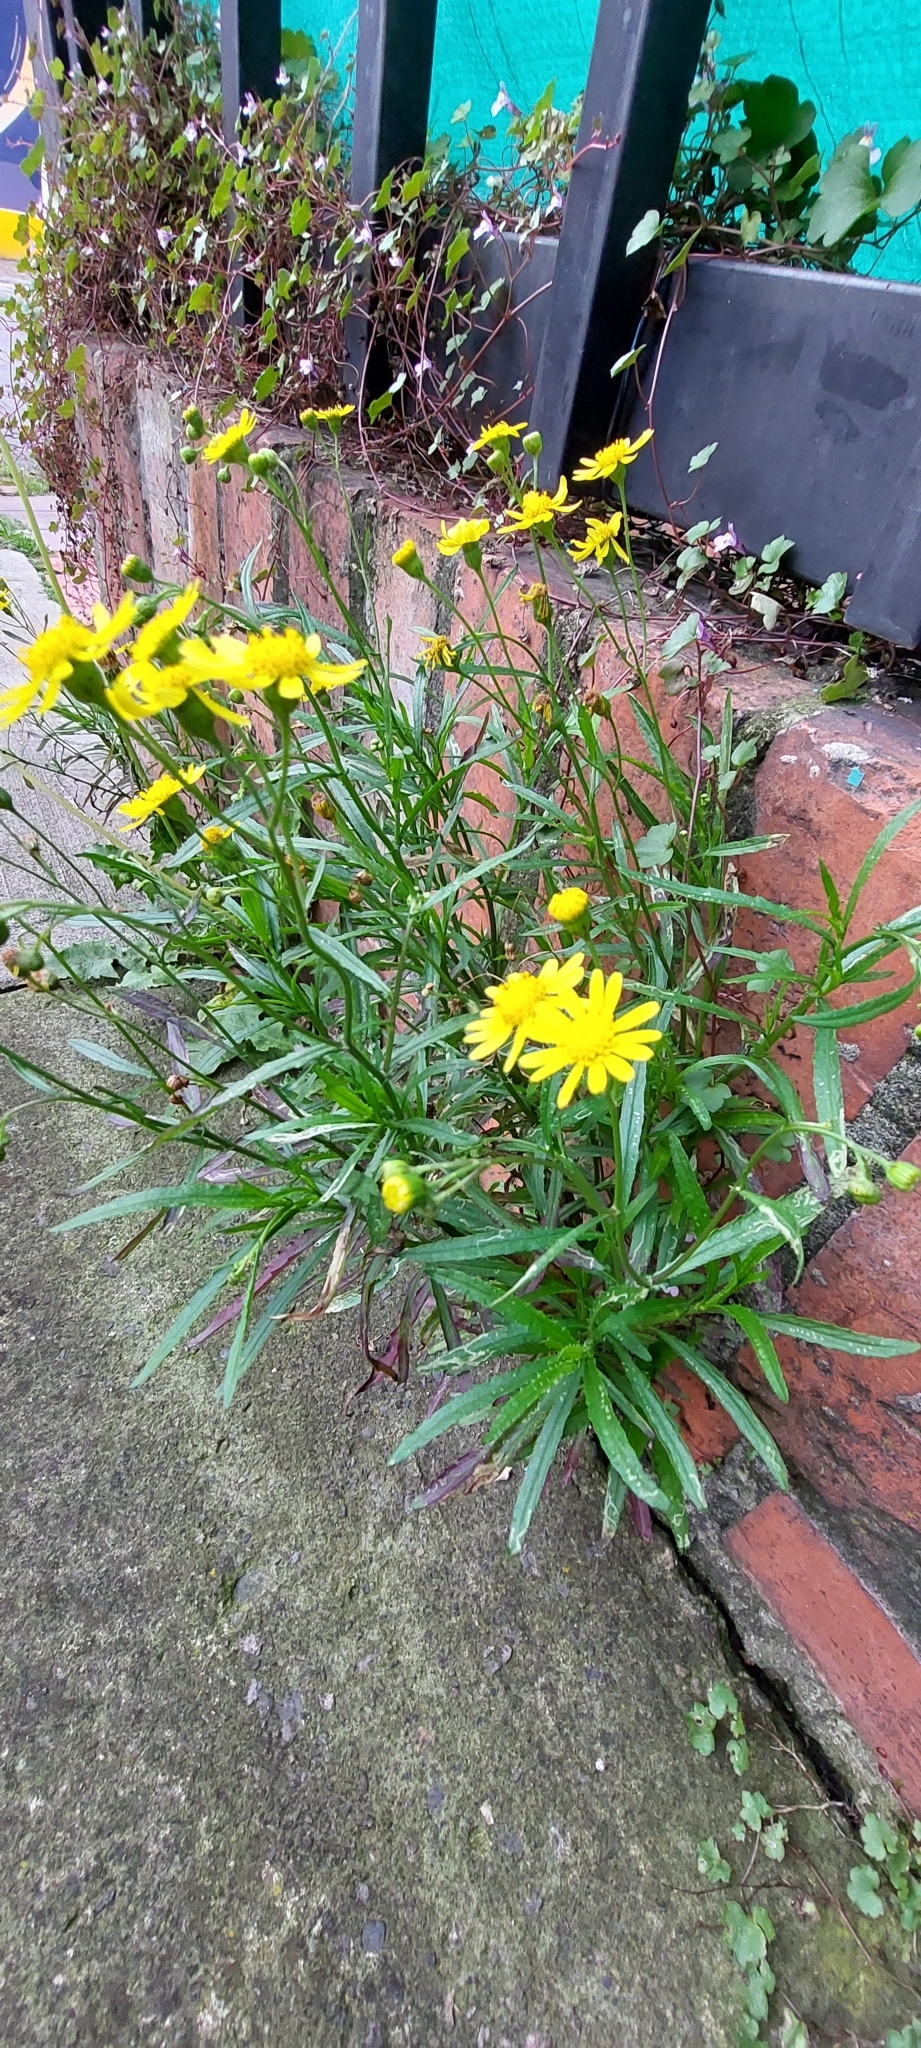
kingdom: Plantae
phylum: Tracheophyta
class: Magnoliopsida
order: Asterales
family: Asteraceae
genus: Senecio
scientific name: Senecio madagascariensis
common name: Madagascar ragwort
